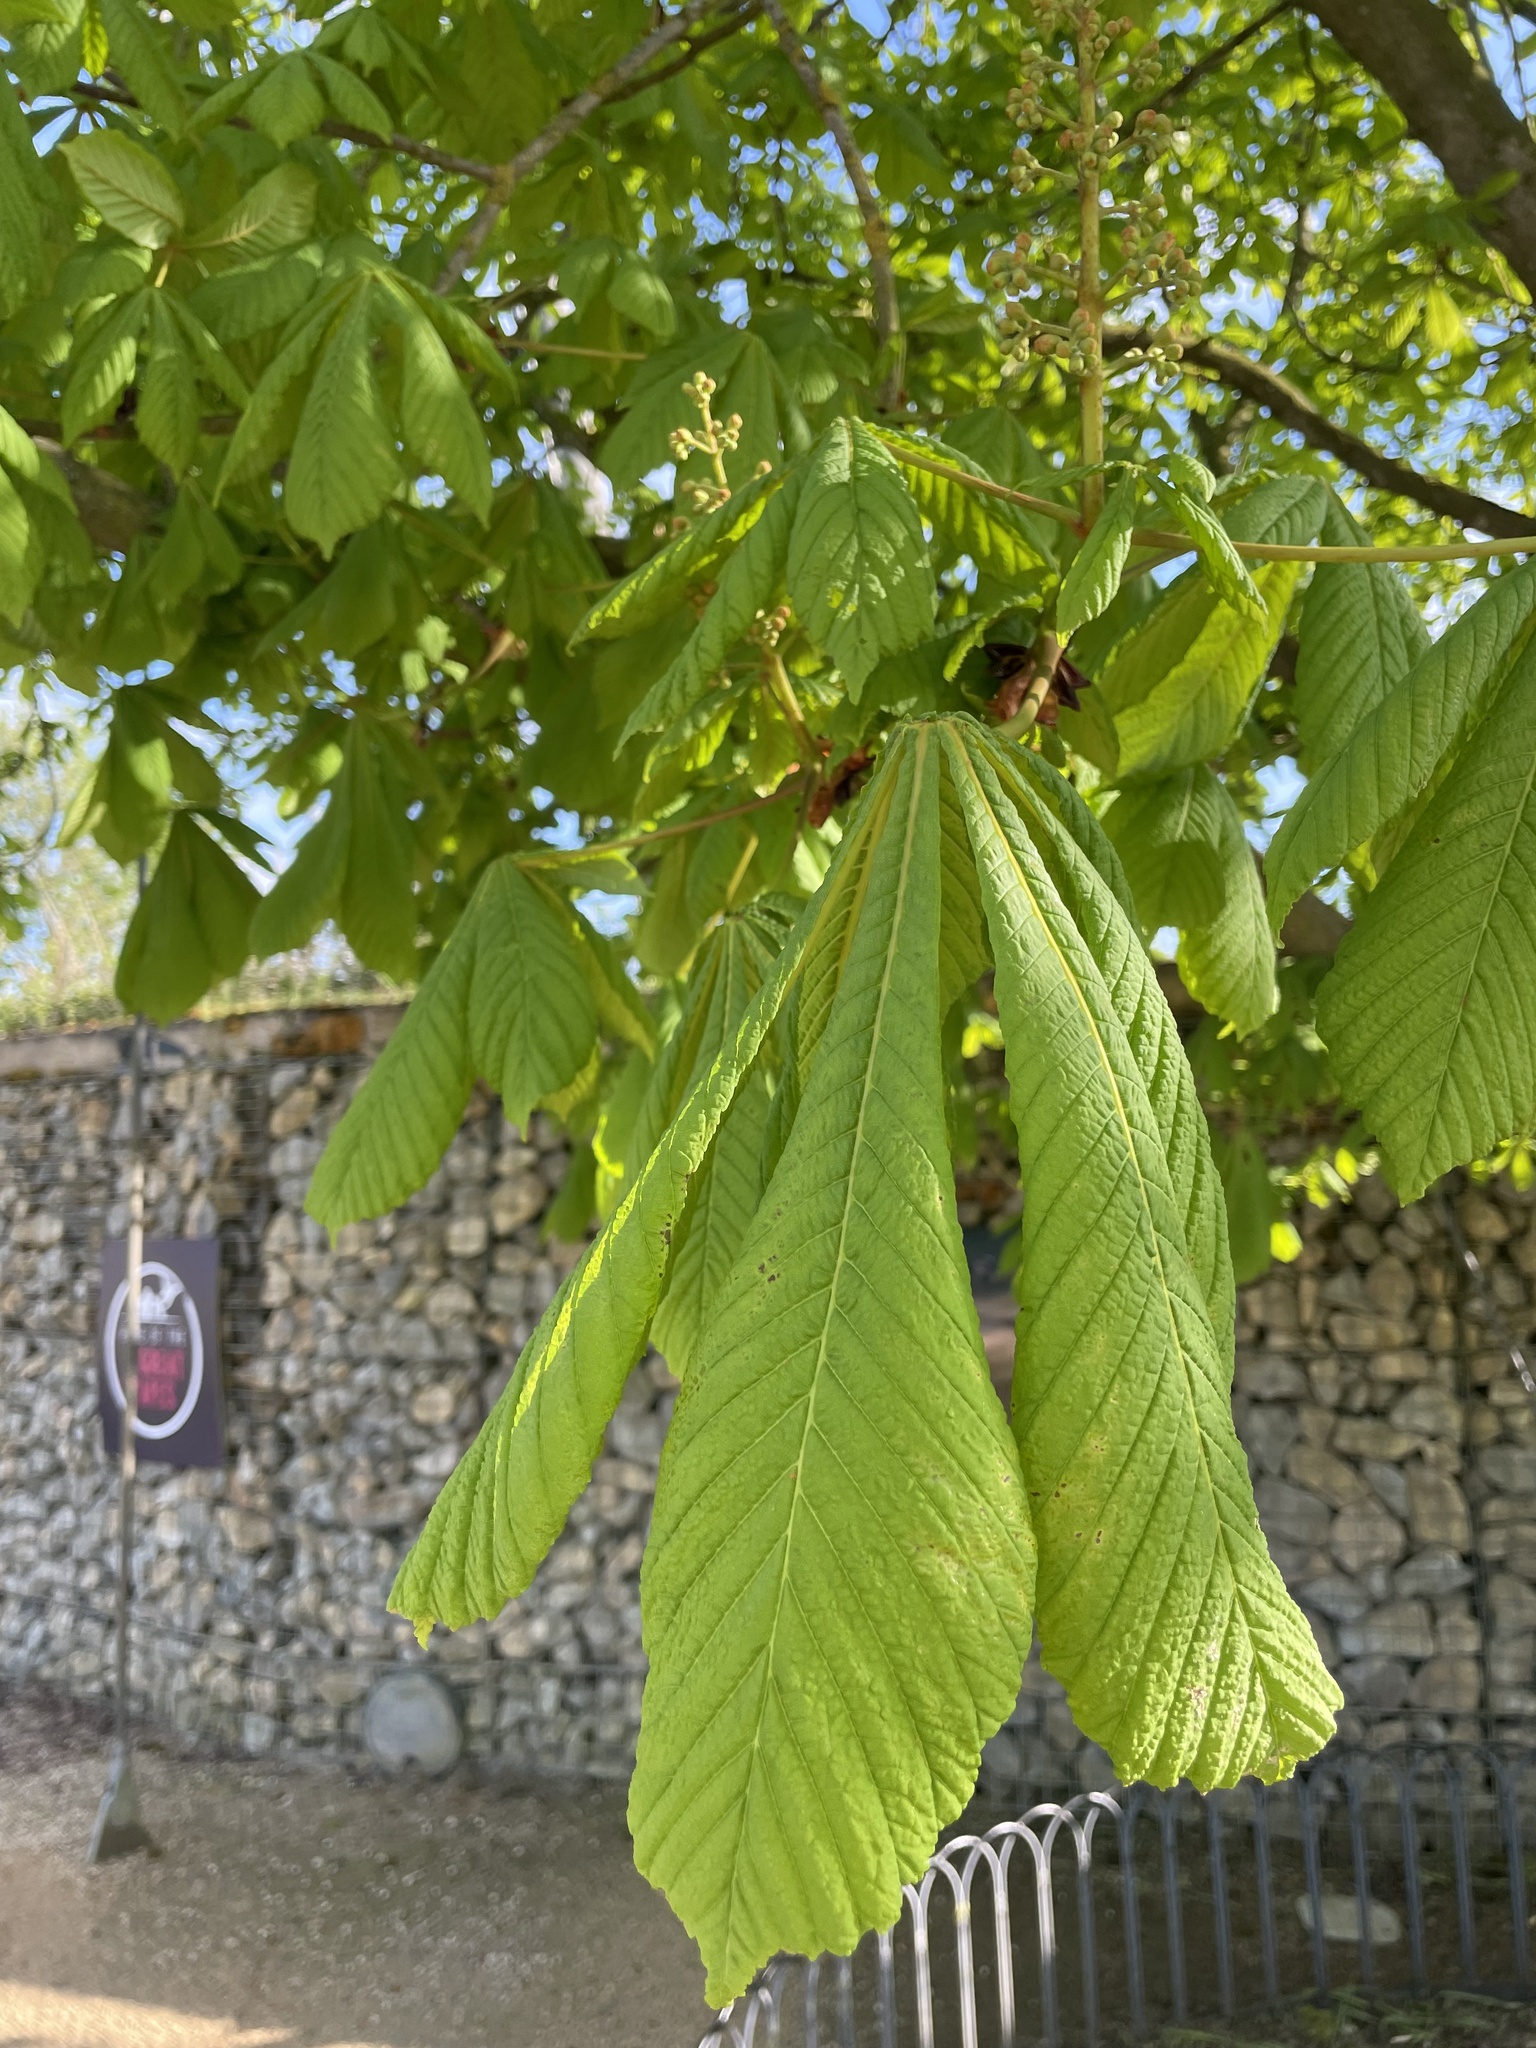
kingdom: Plantae
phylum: Tracheophyta
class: Magnoliopsida
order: Sapindales
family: Sapindaceae
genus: Aesculus
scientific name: Aesculus hippocastanum
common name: Horse-chestnut
